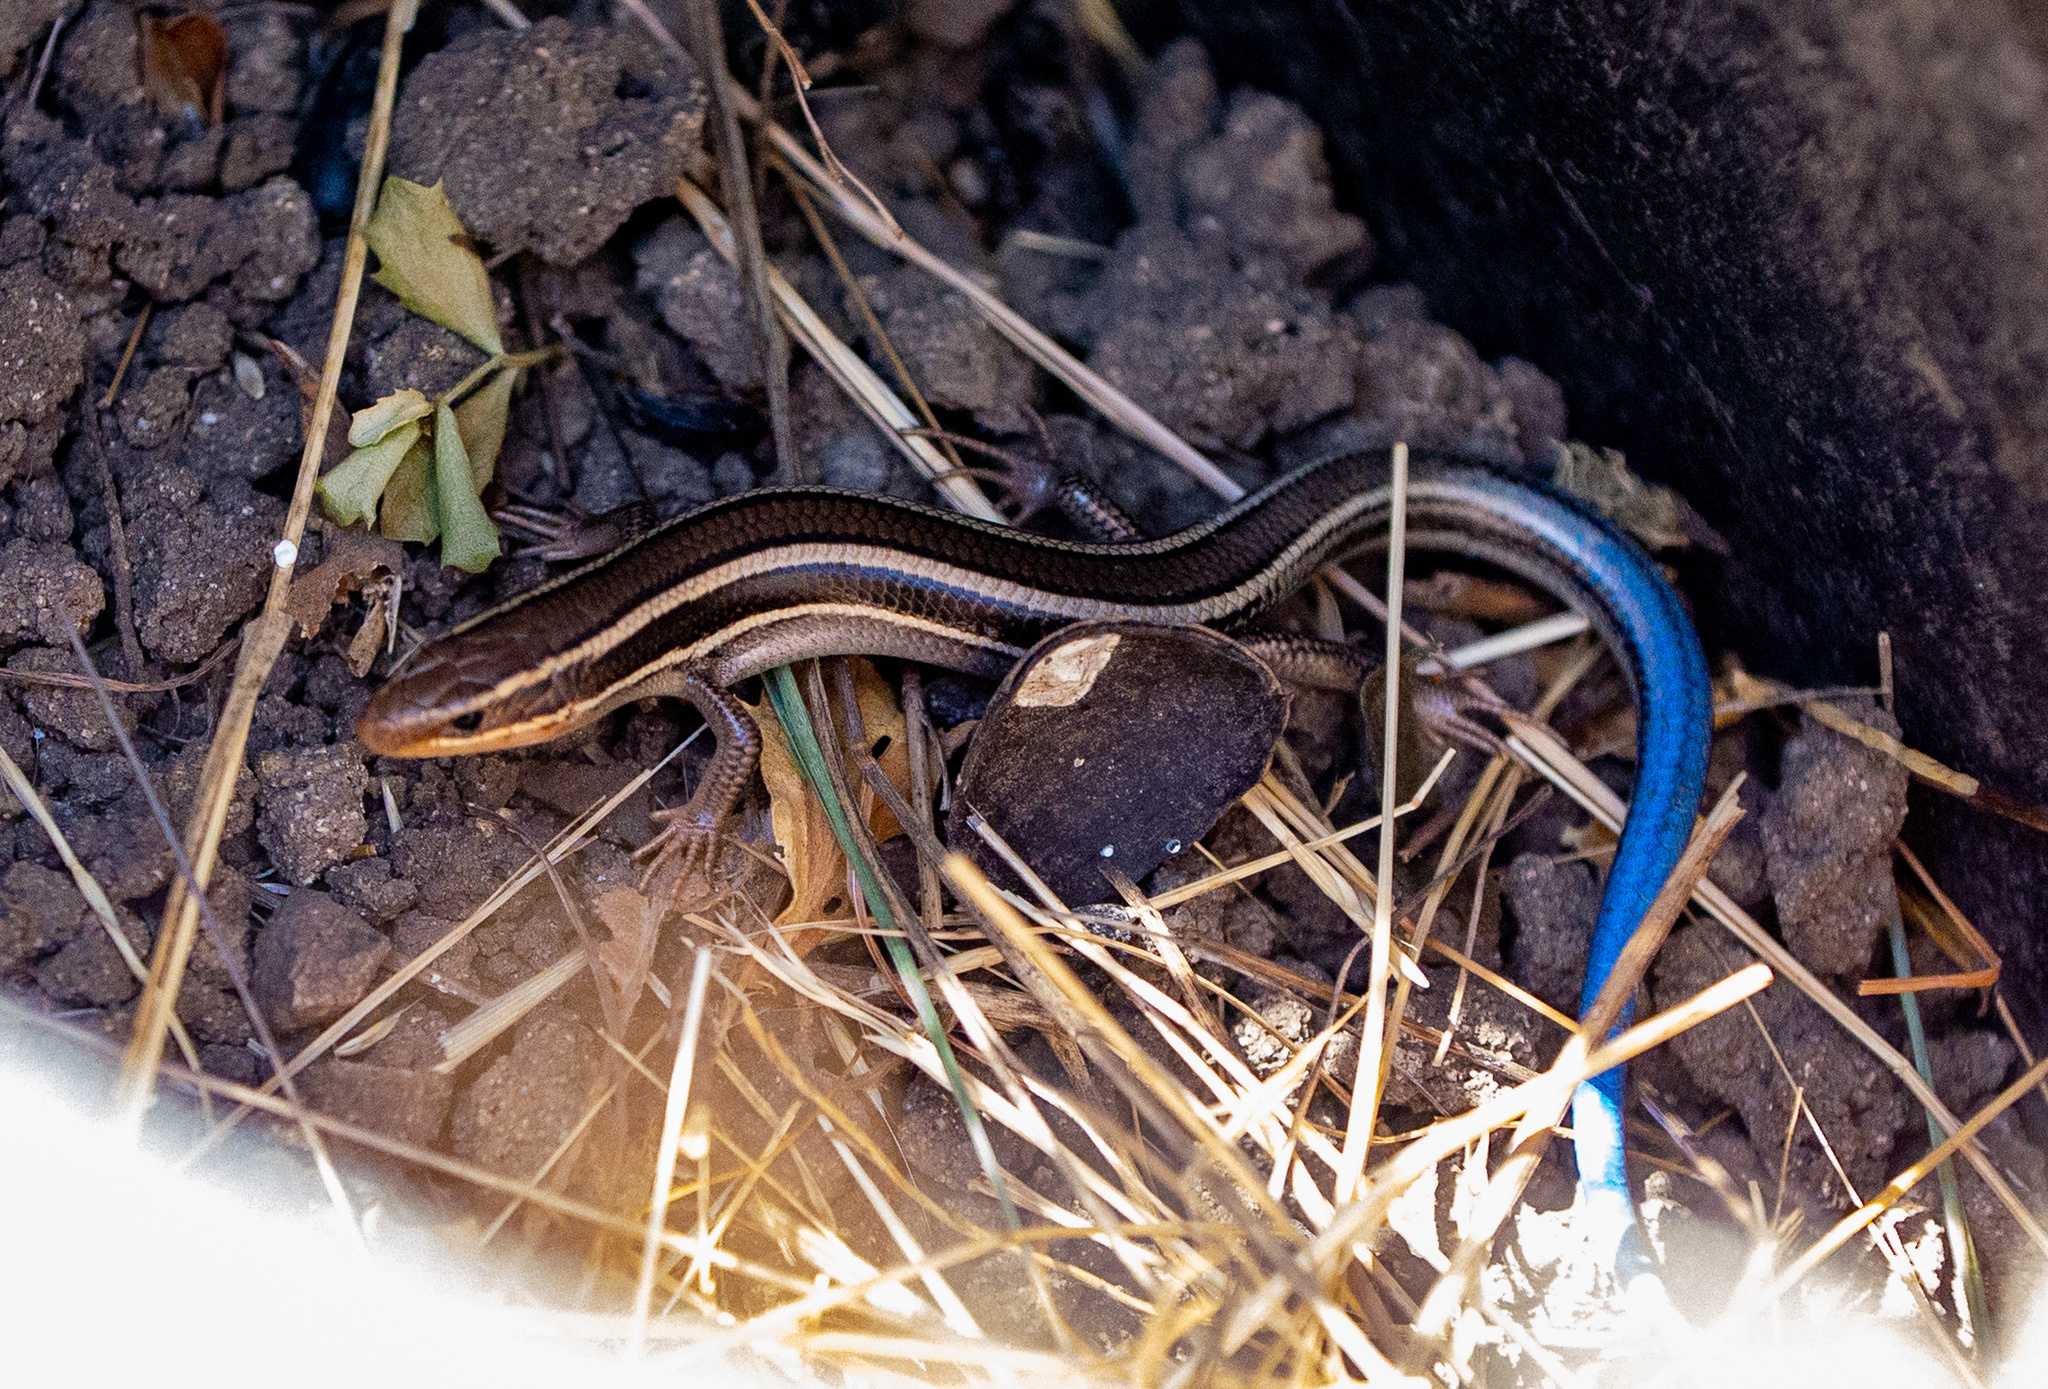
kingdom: Animalia
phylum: Chordata
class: Squamata
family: Scincidae
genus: Plestiodon
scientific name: Plestiodon skiltonianus
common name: Coronado island skink [interparietalis]
